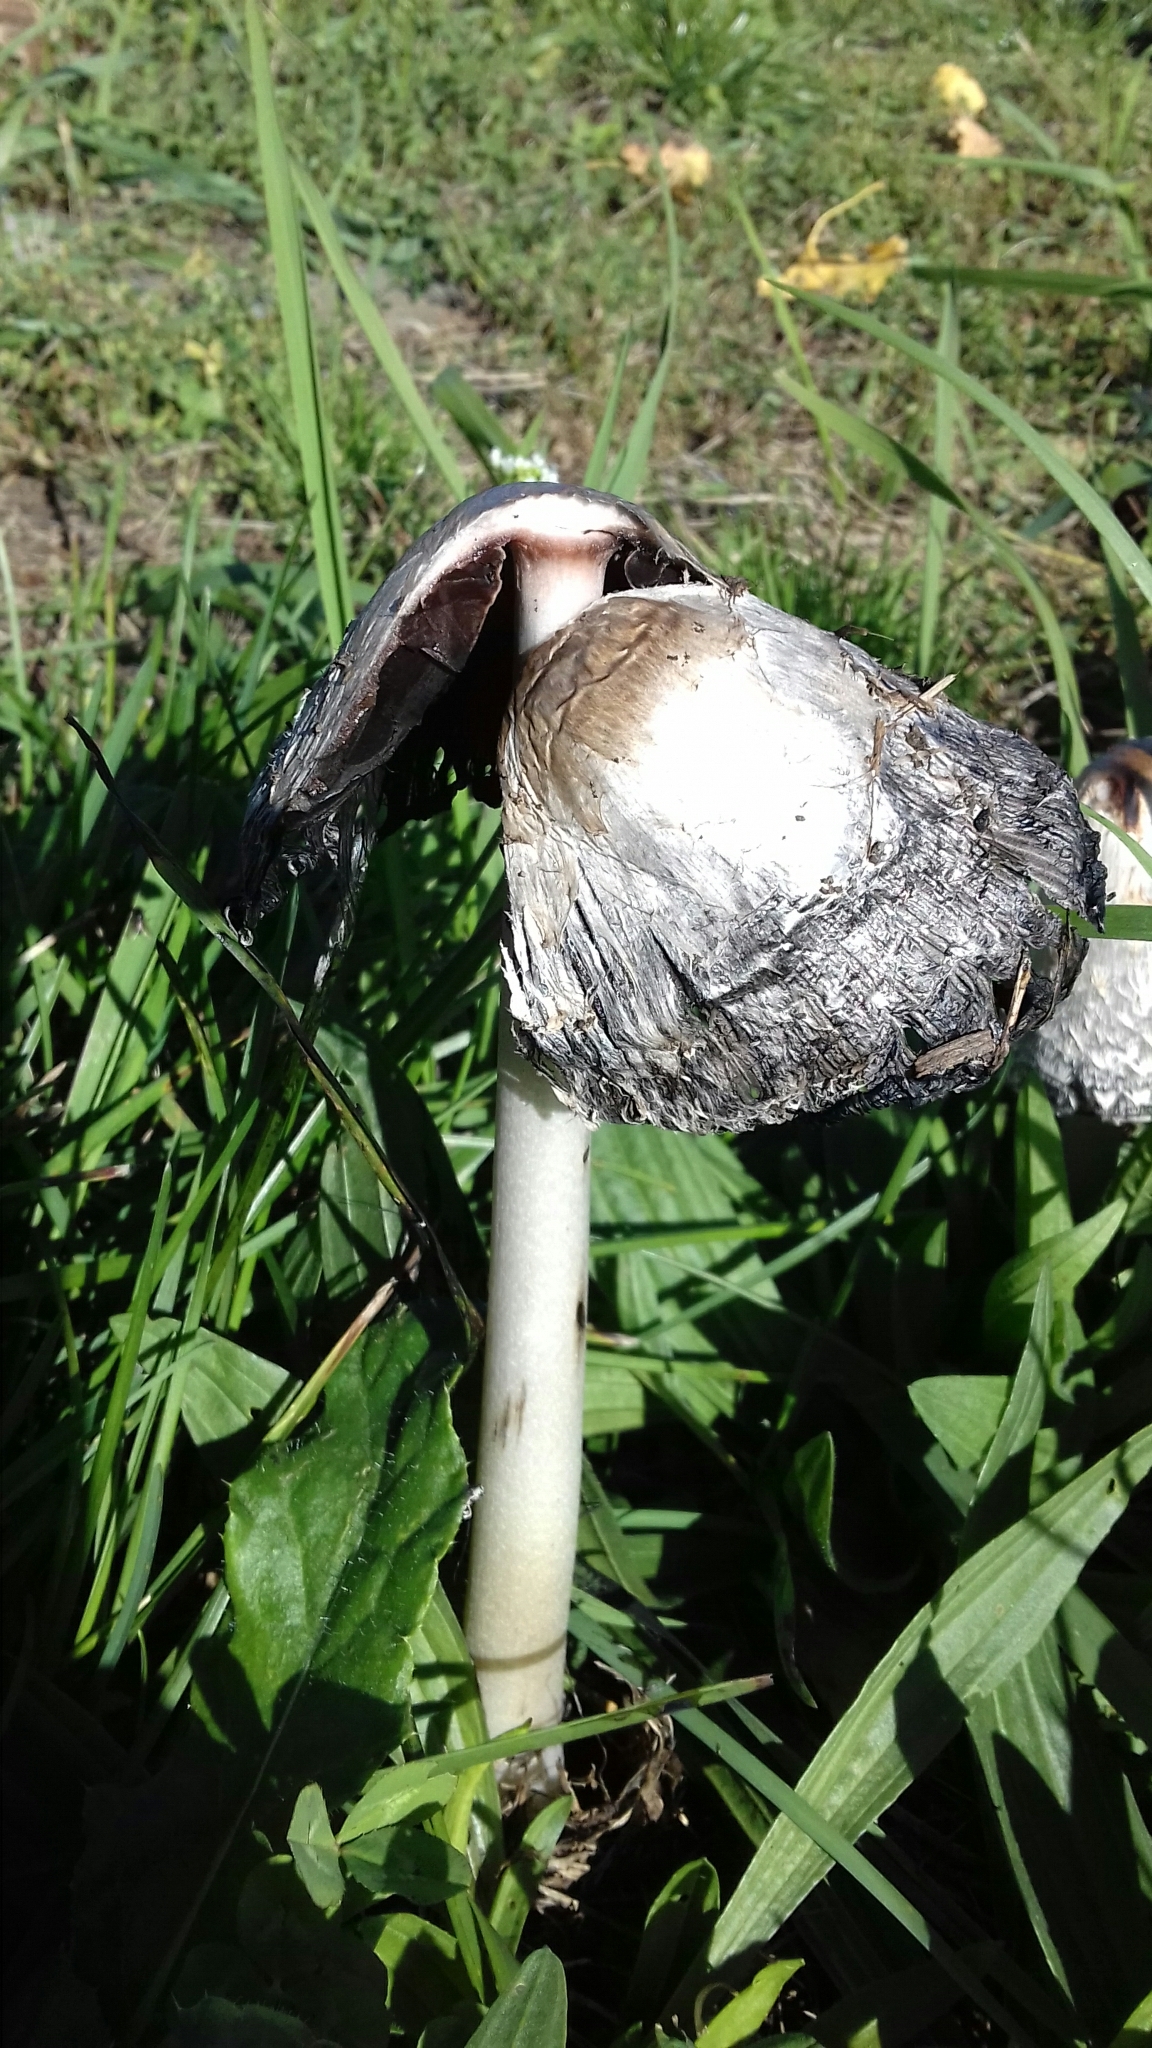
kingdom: Fungi
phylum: Basidiomycota
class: Agaricomycetes
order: Agaricales
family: Agaricaceae
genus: Coprinus
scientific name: Coprinus comatus
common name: Lawyer's wig
